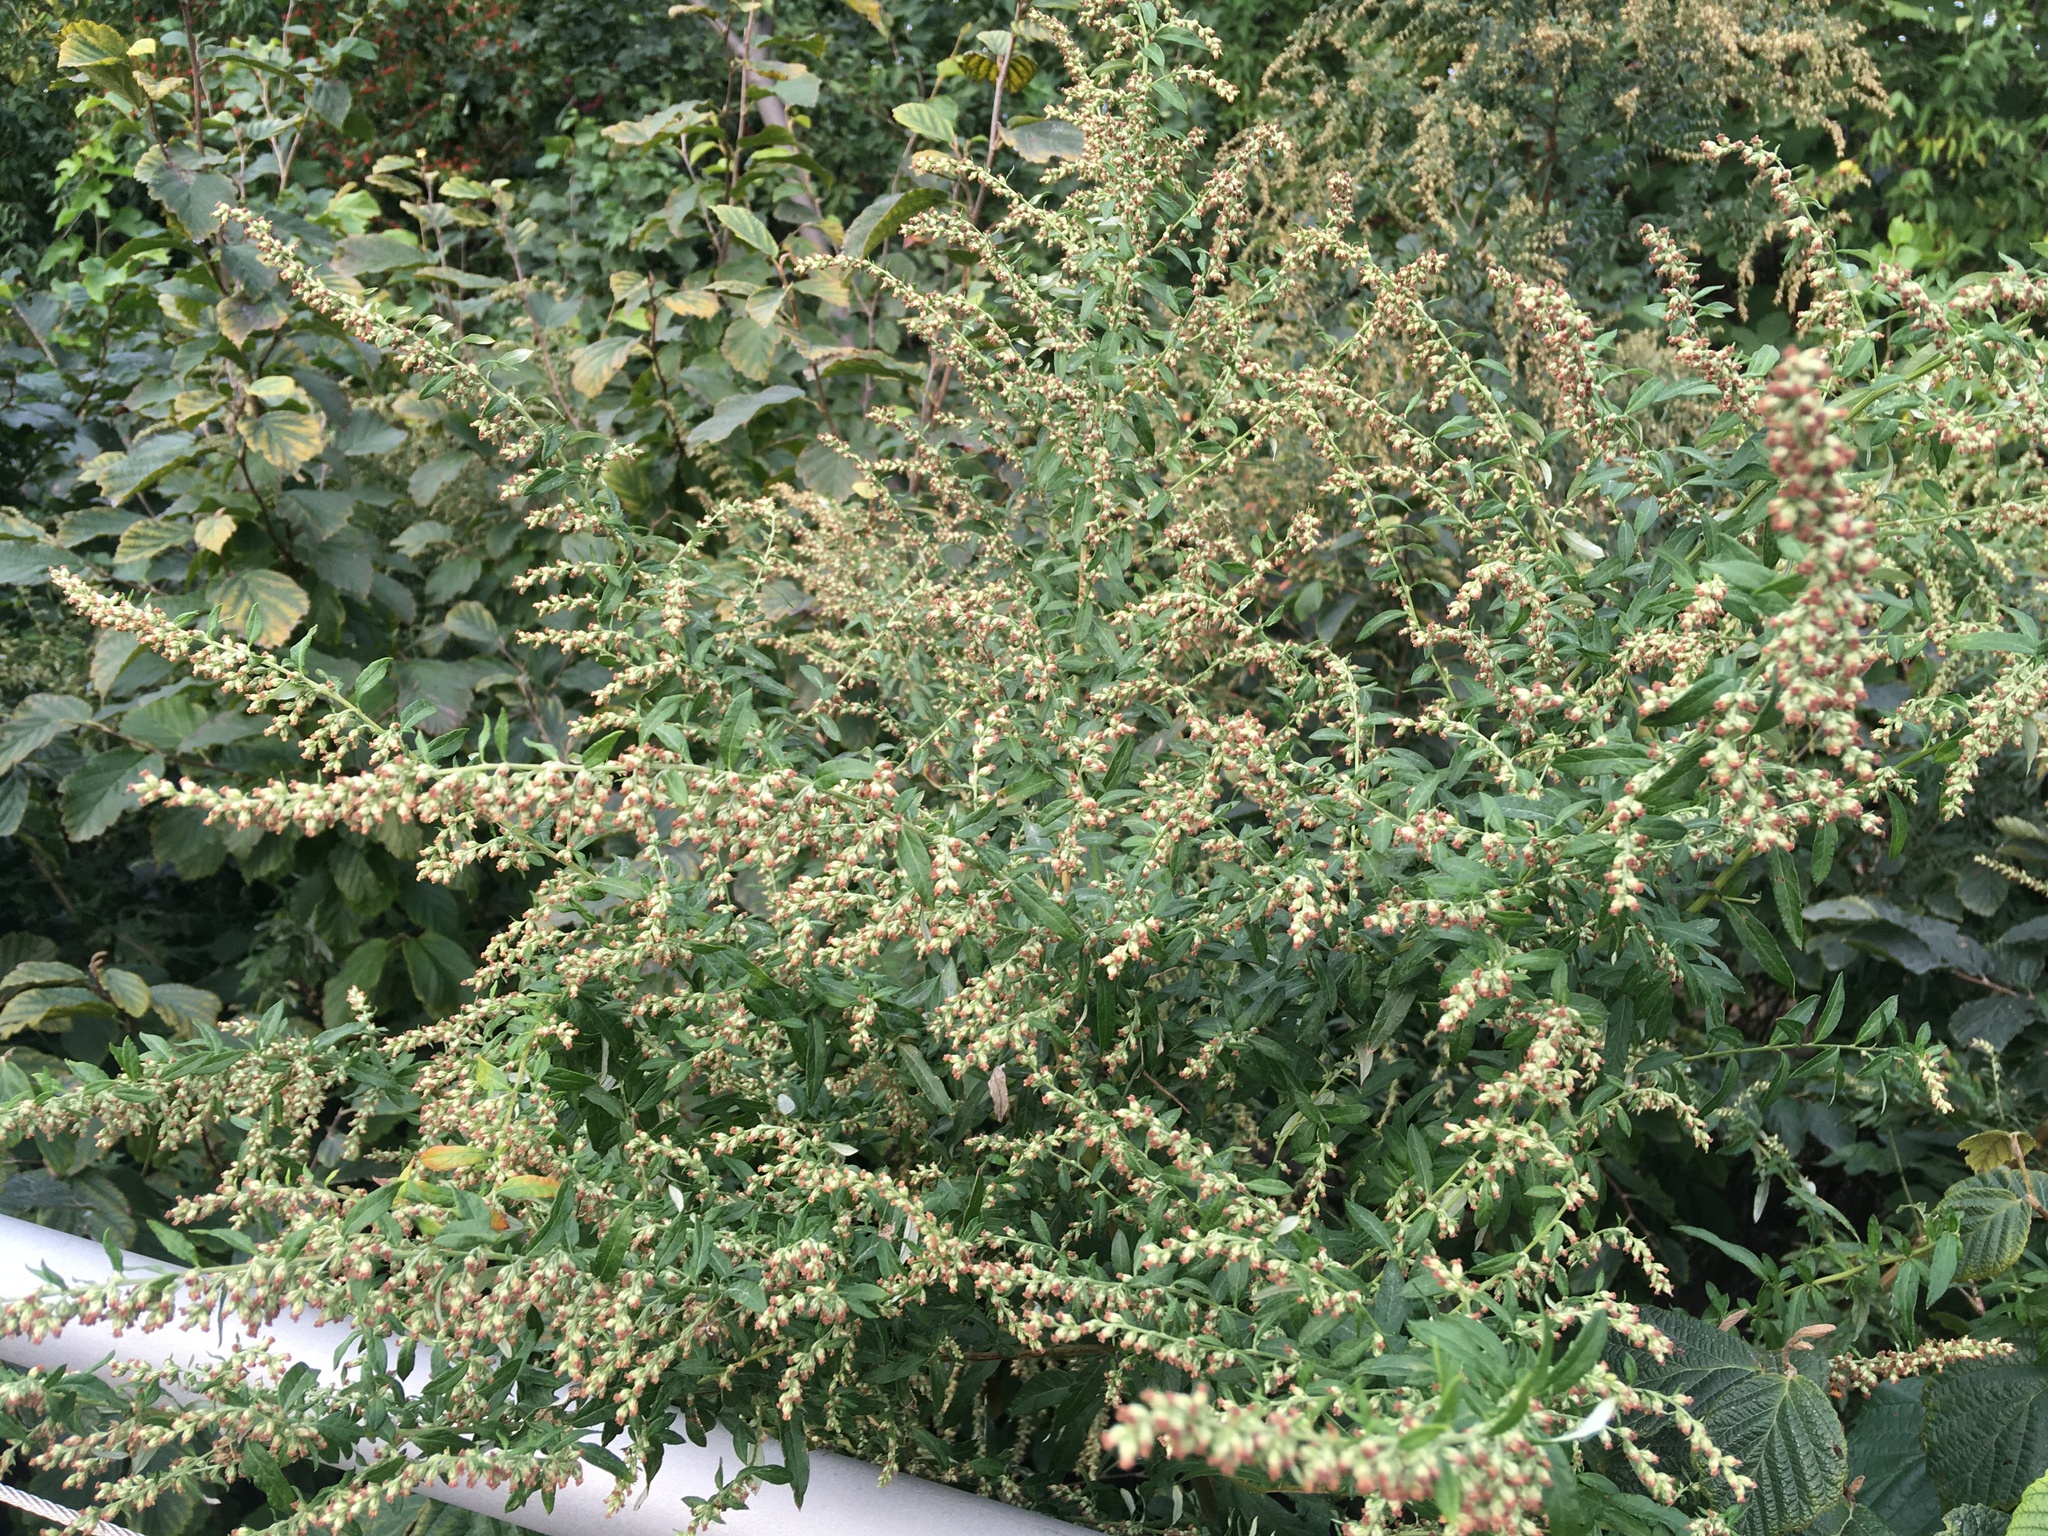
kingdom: Plantae
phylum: Tracheophyta
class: Magnoliopsida
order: Asterales
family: Asteraceae
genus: Artemisia
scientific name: Artemisia vulgaris
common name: Mugwort
